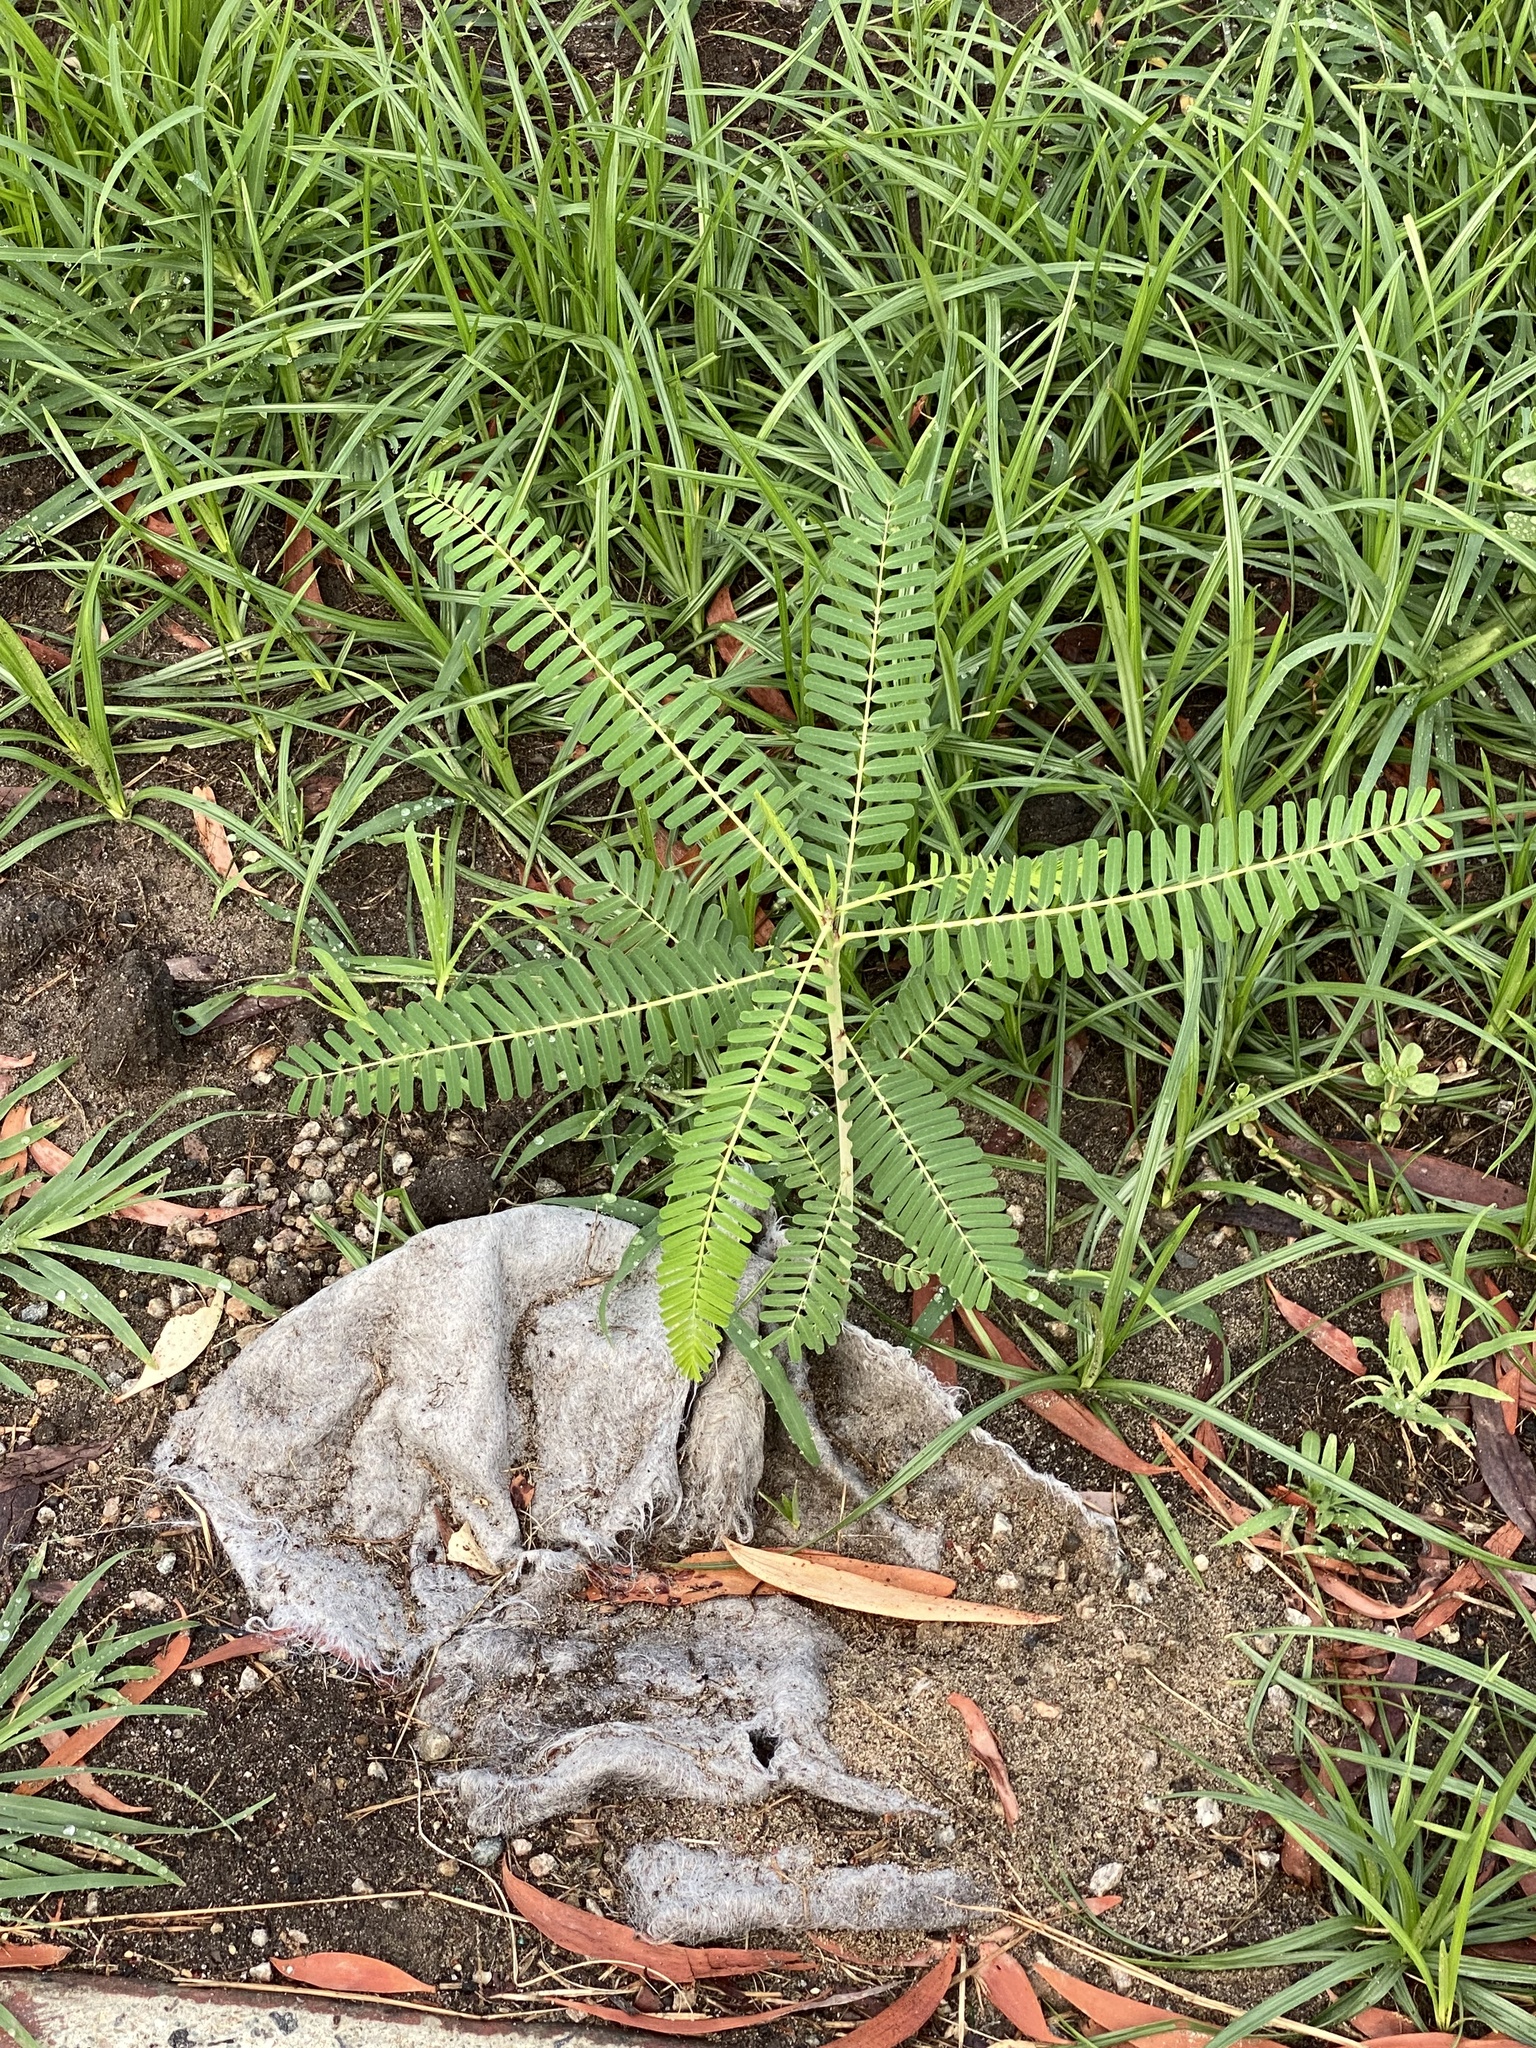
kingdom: Plantae
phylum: Tracheophyta
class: Magnoliopsida
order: Fabales
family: Fabaceae
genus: Sesbania
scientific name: Sesbania cannabina
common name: Canicha
